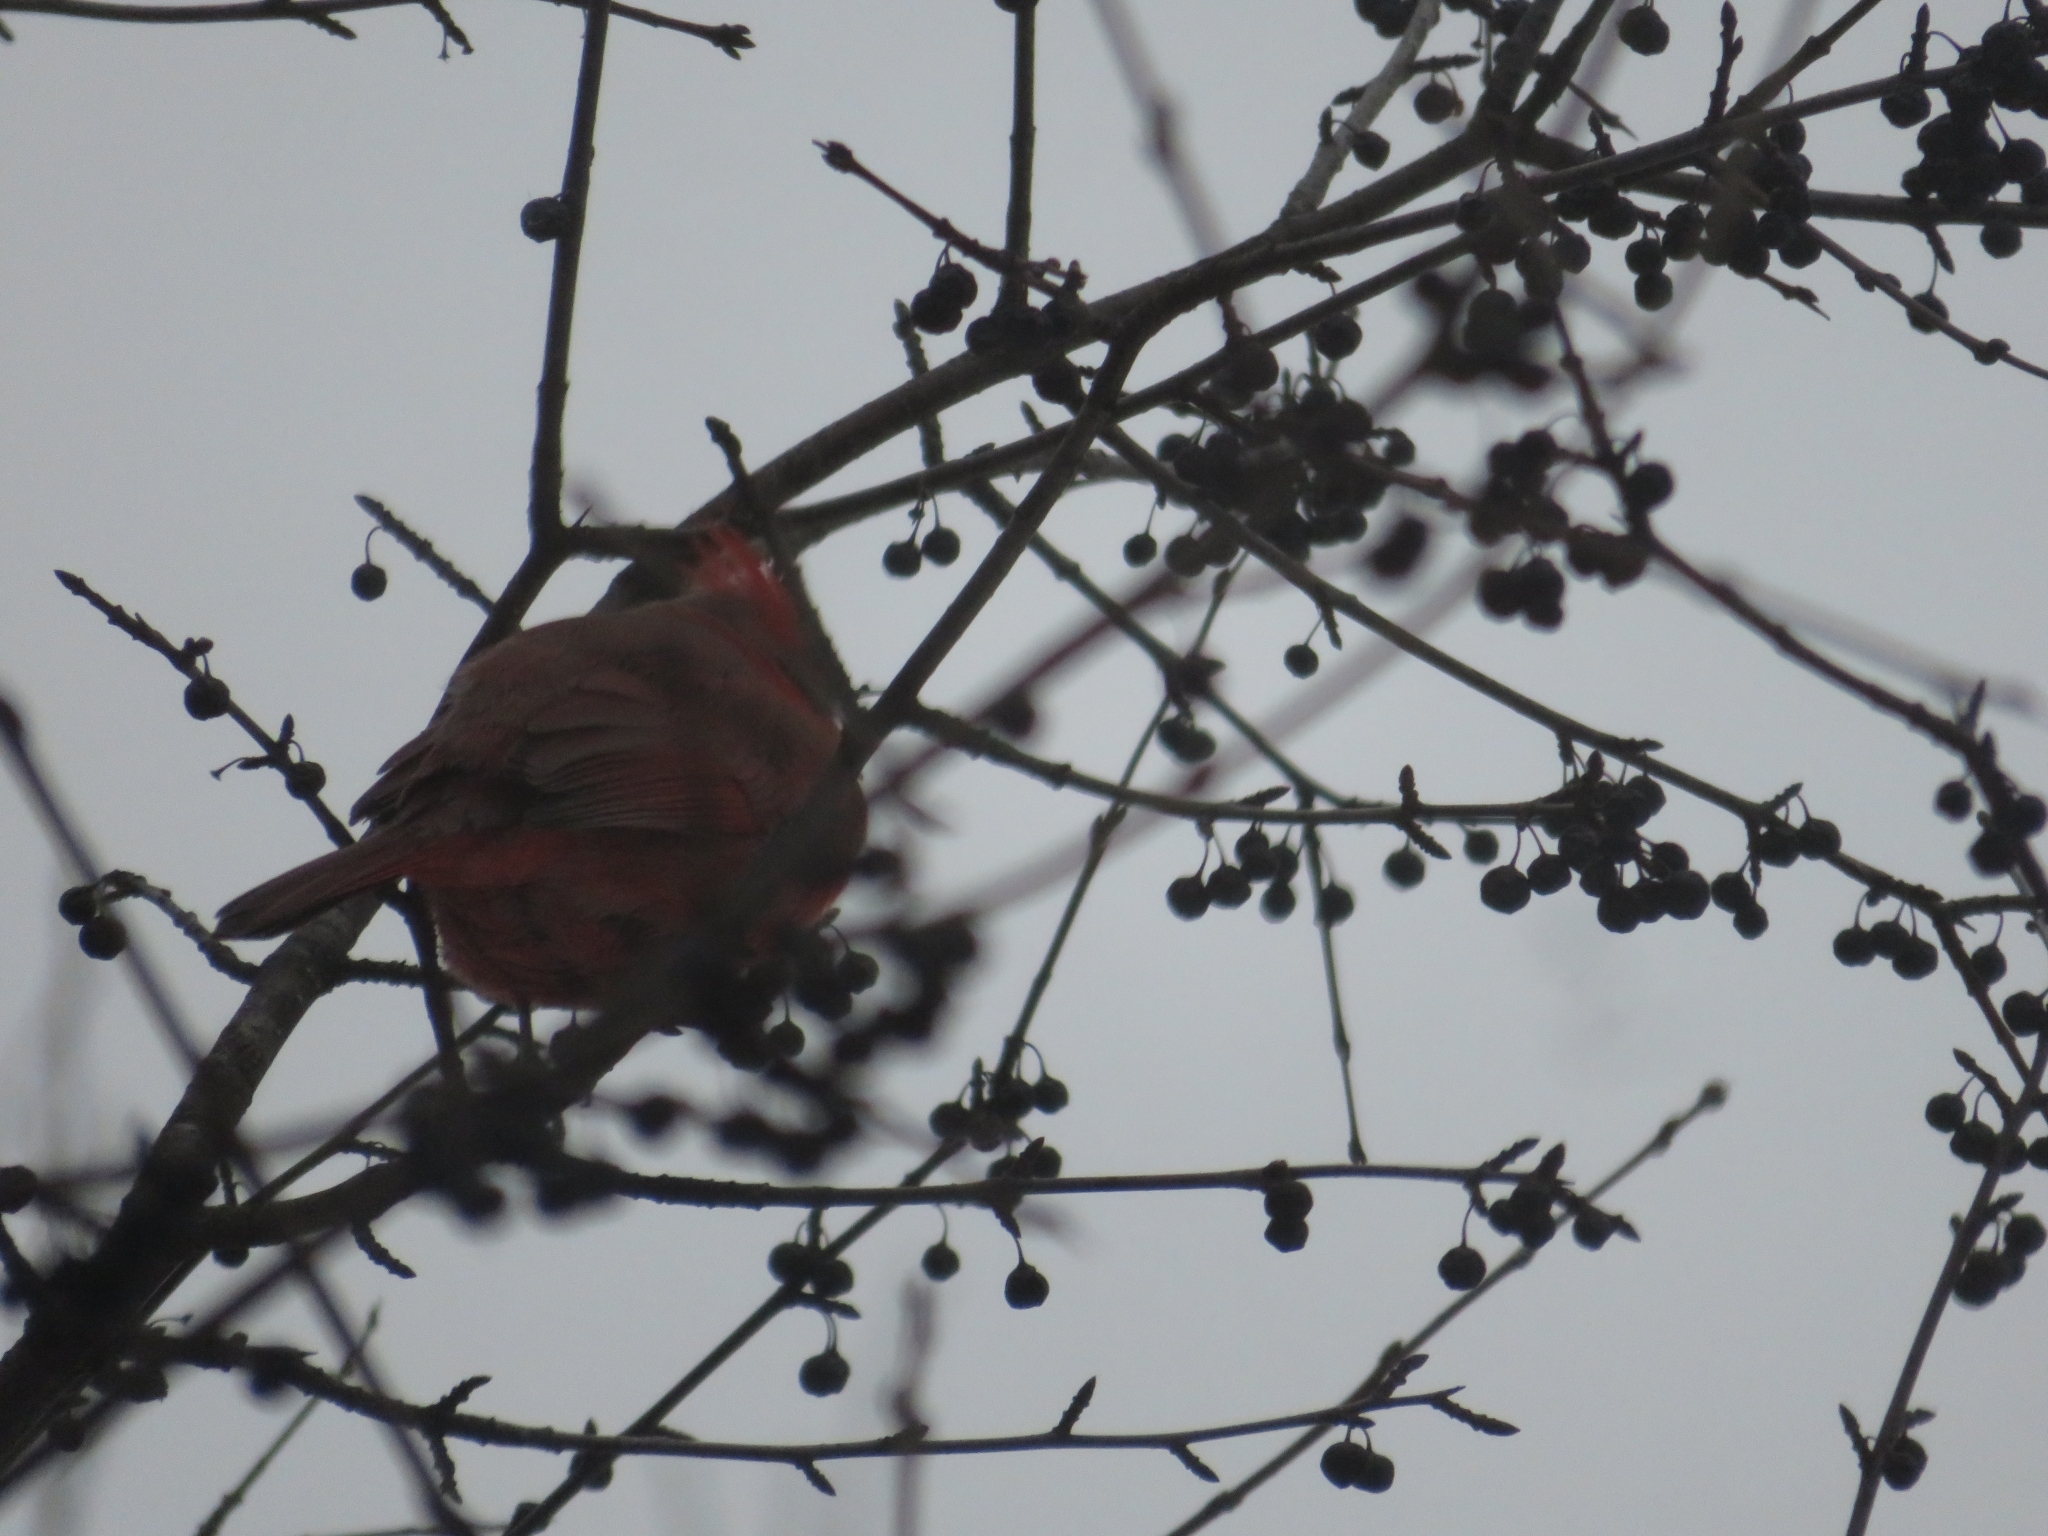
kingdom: Animalia
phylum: Chordata
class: Aves
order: Passeriformes
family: Cardinalidae
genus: Cardinalis
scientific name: Cardinalis cardinalis
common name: Northern cardinal
